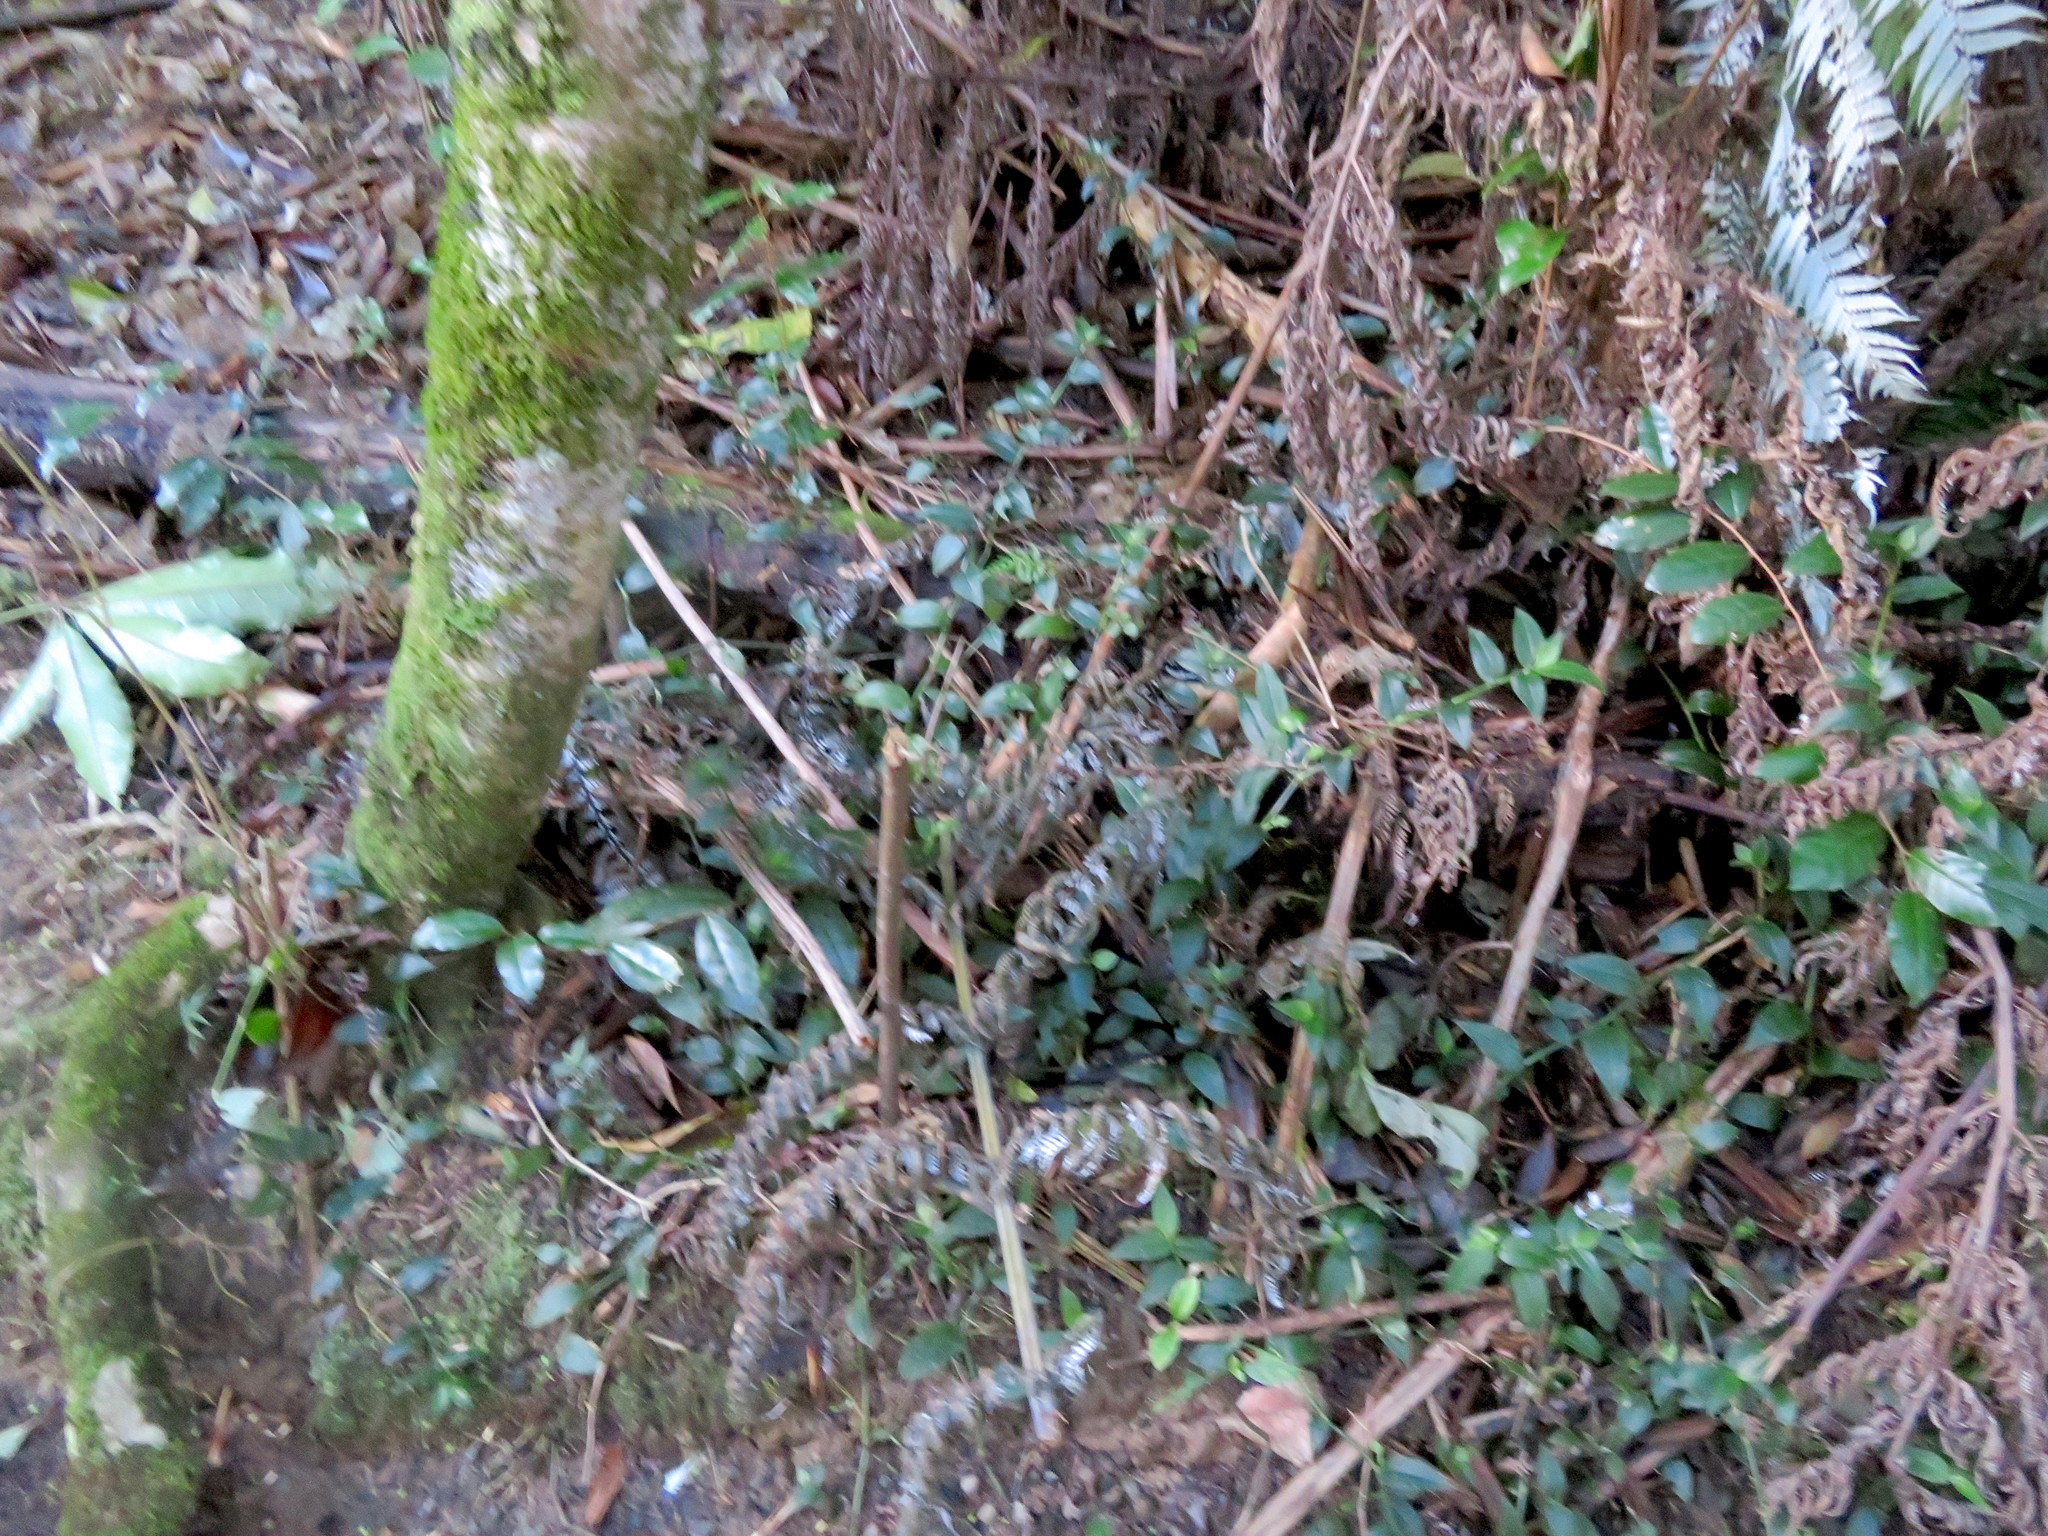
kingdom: Plantae
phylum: Tracheophyta
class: Magnoliopsida
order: Rosales
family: Elaeagnaceae
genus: Elaeagnus
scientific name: Elaeagnus reflexa
